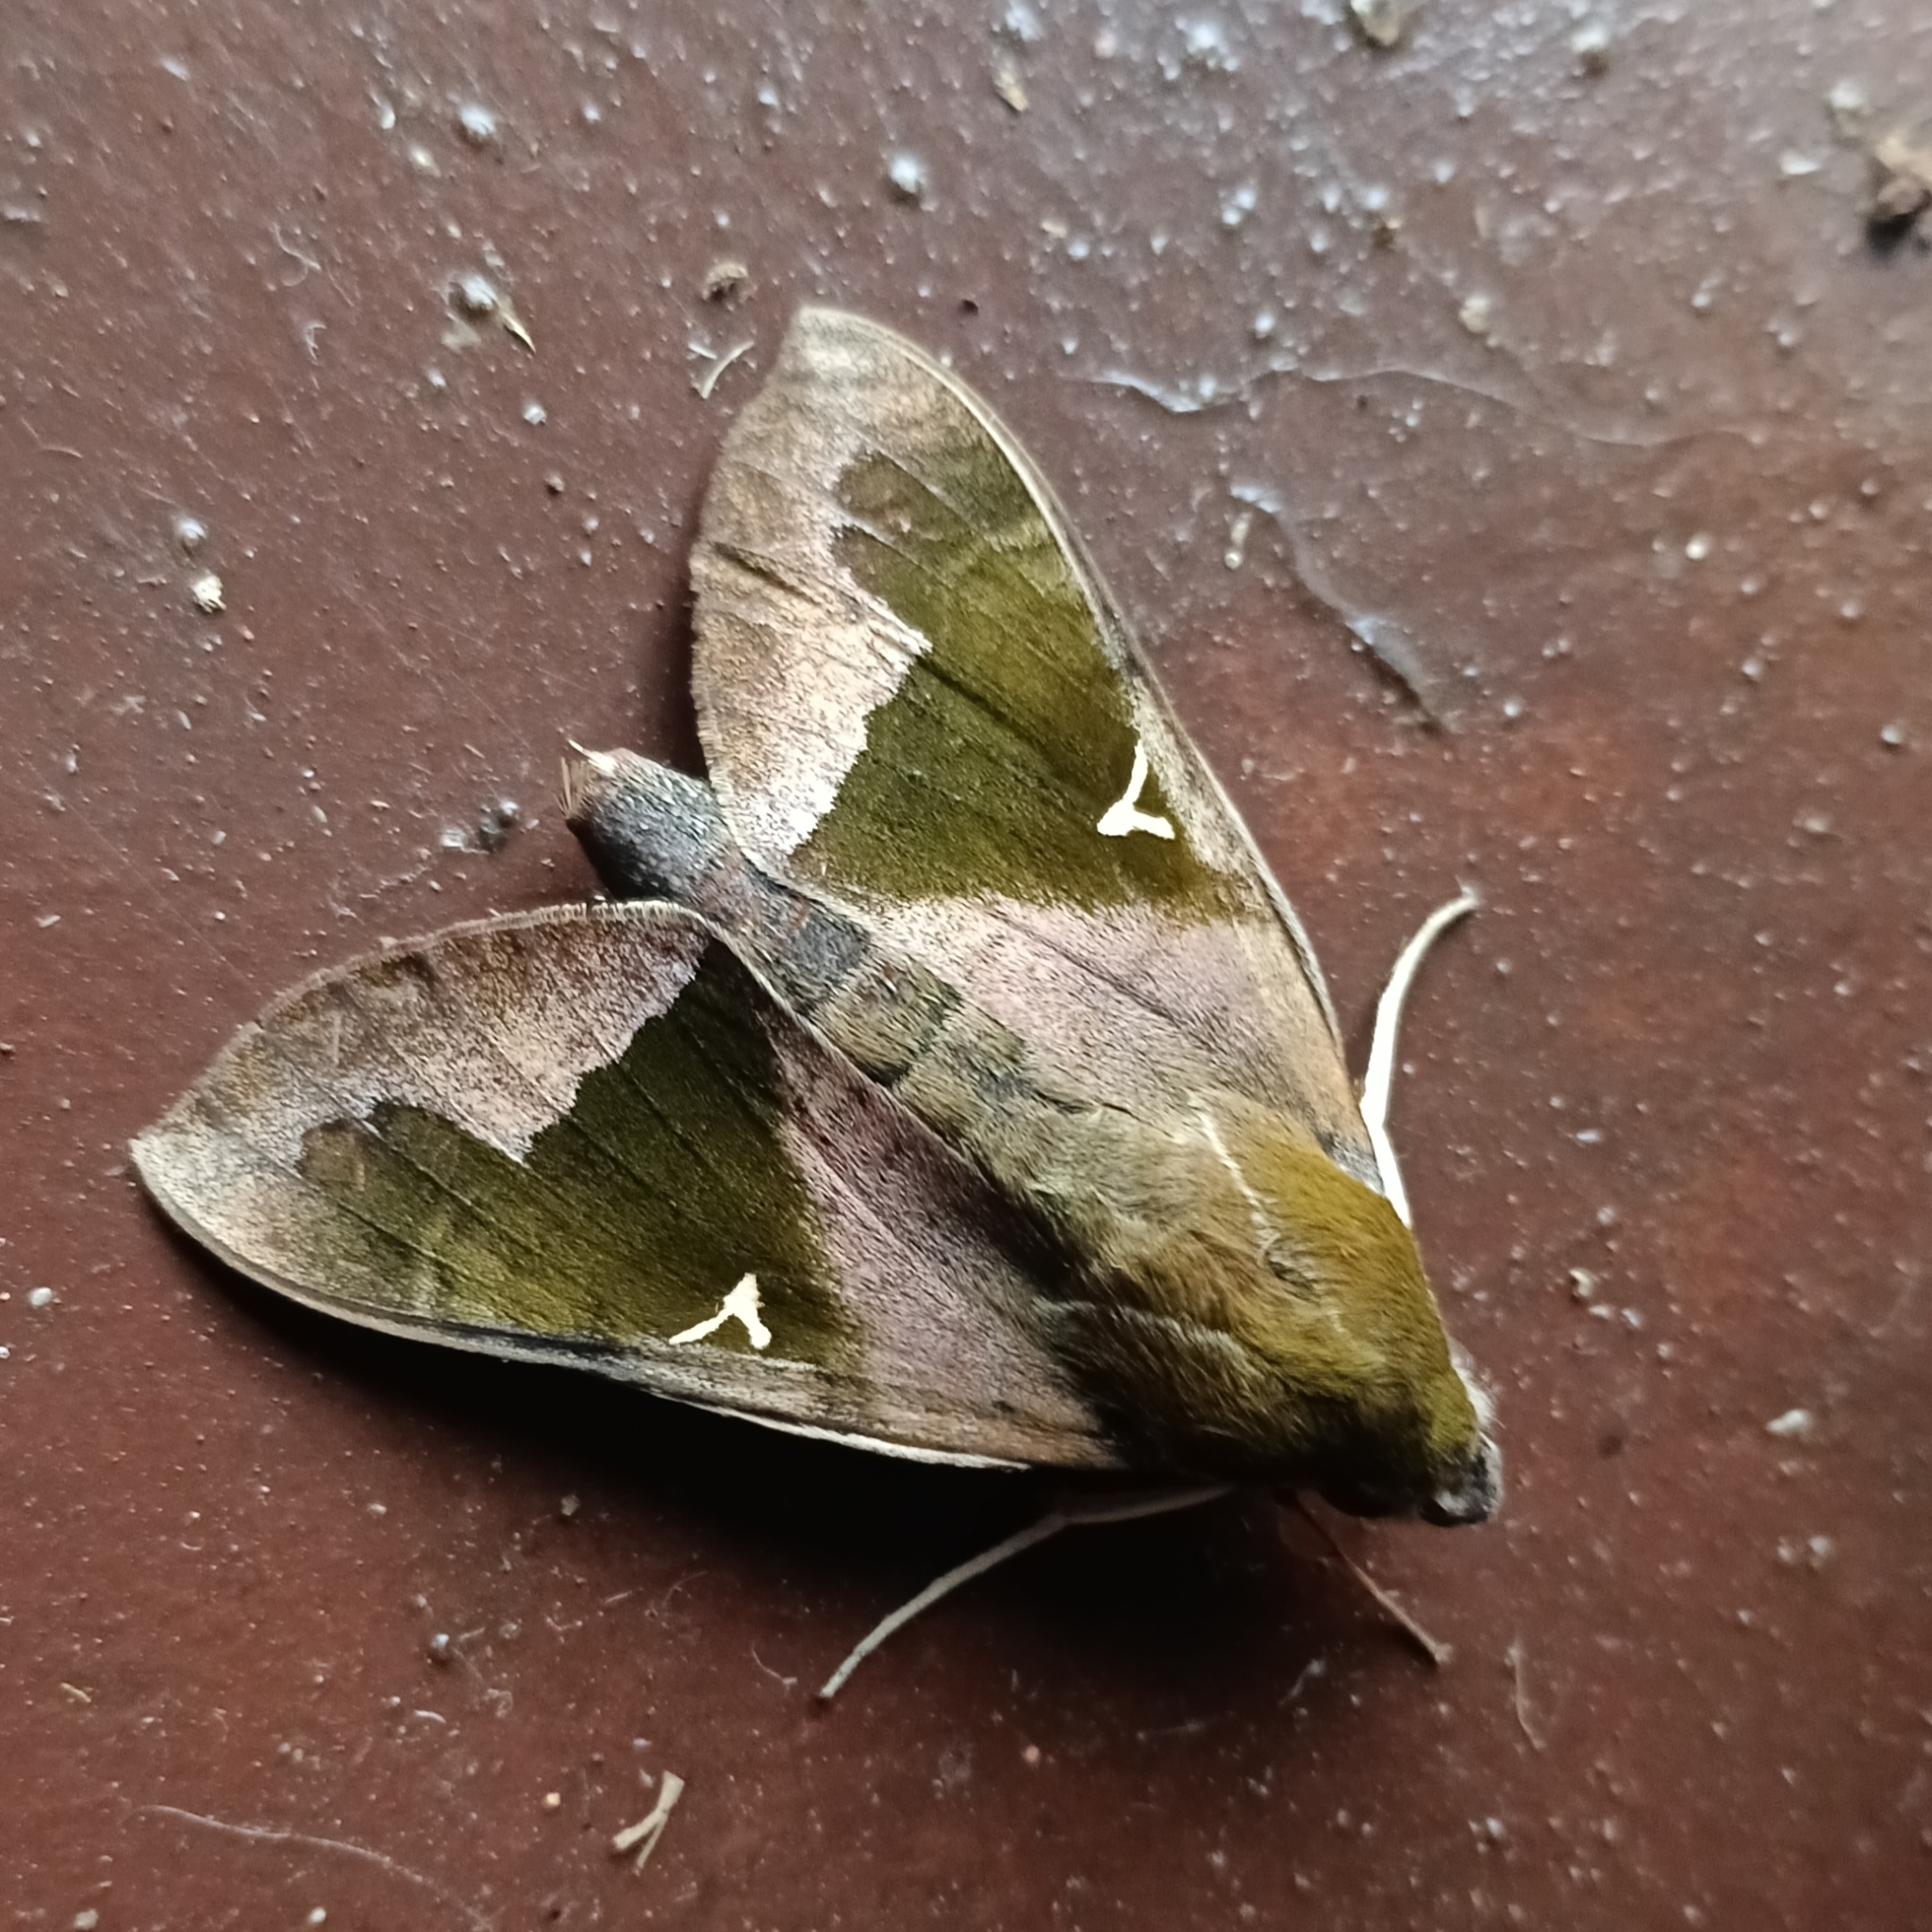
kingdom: Animalia
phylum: Arthropoda
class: Insecta
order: Lepidoptera
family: Sphingidae
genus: Nephele
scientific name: Nephele vau
